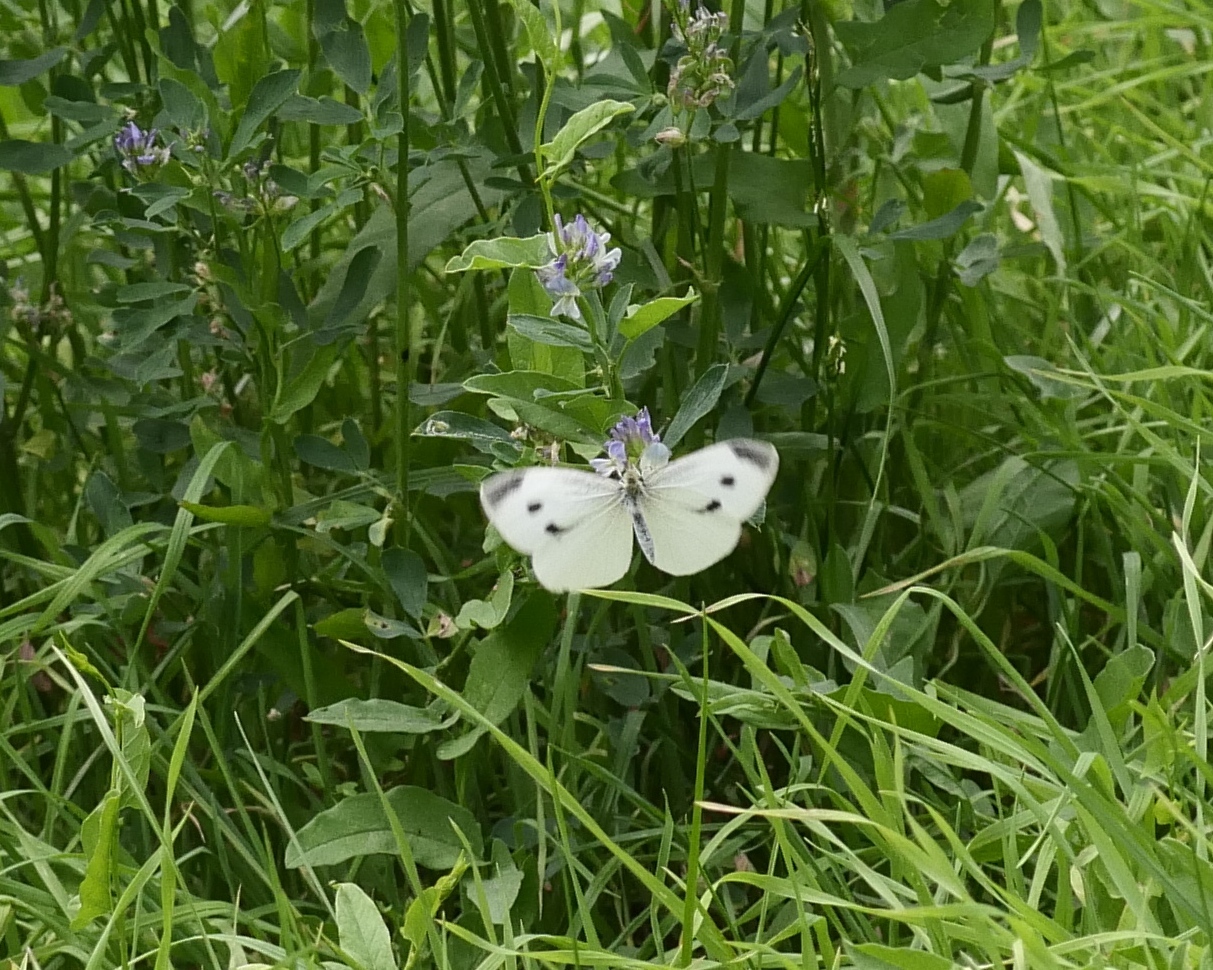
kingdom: Animalia
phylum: Arthropoda
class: Insecta
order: Lepidoptera
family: Pieridae
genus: Pieris
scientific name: Pieris rapae
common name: Small white
